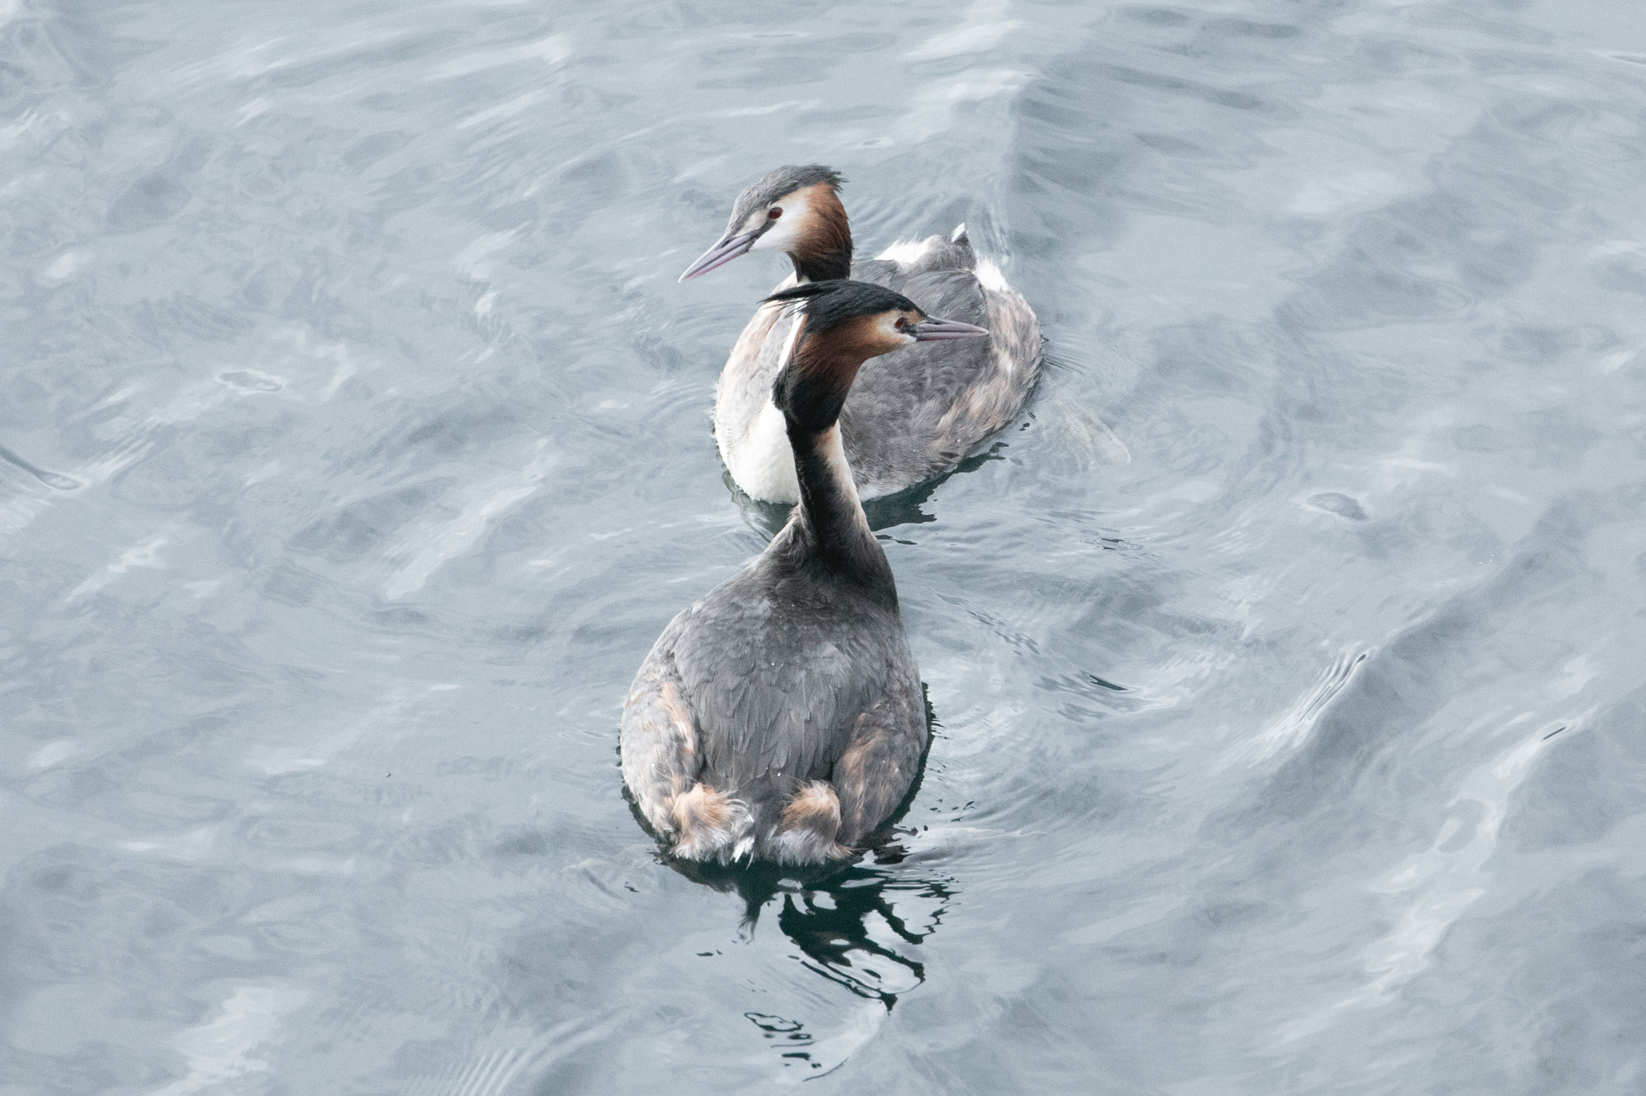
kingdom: Animalia
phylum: Chordata
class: Aves
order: Podicipediformes
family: Podicipedidae
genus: Podiceps
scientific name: Podiceps cristatus
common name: Great crested grebe
